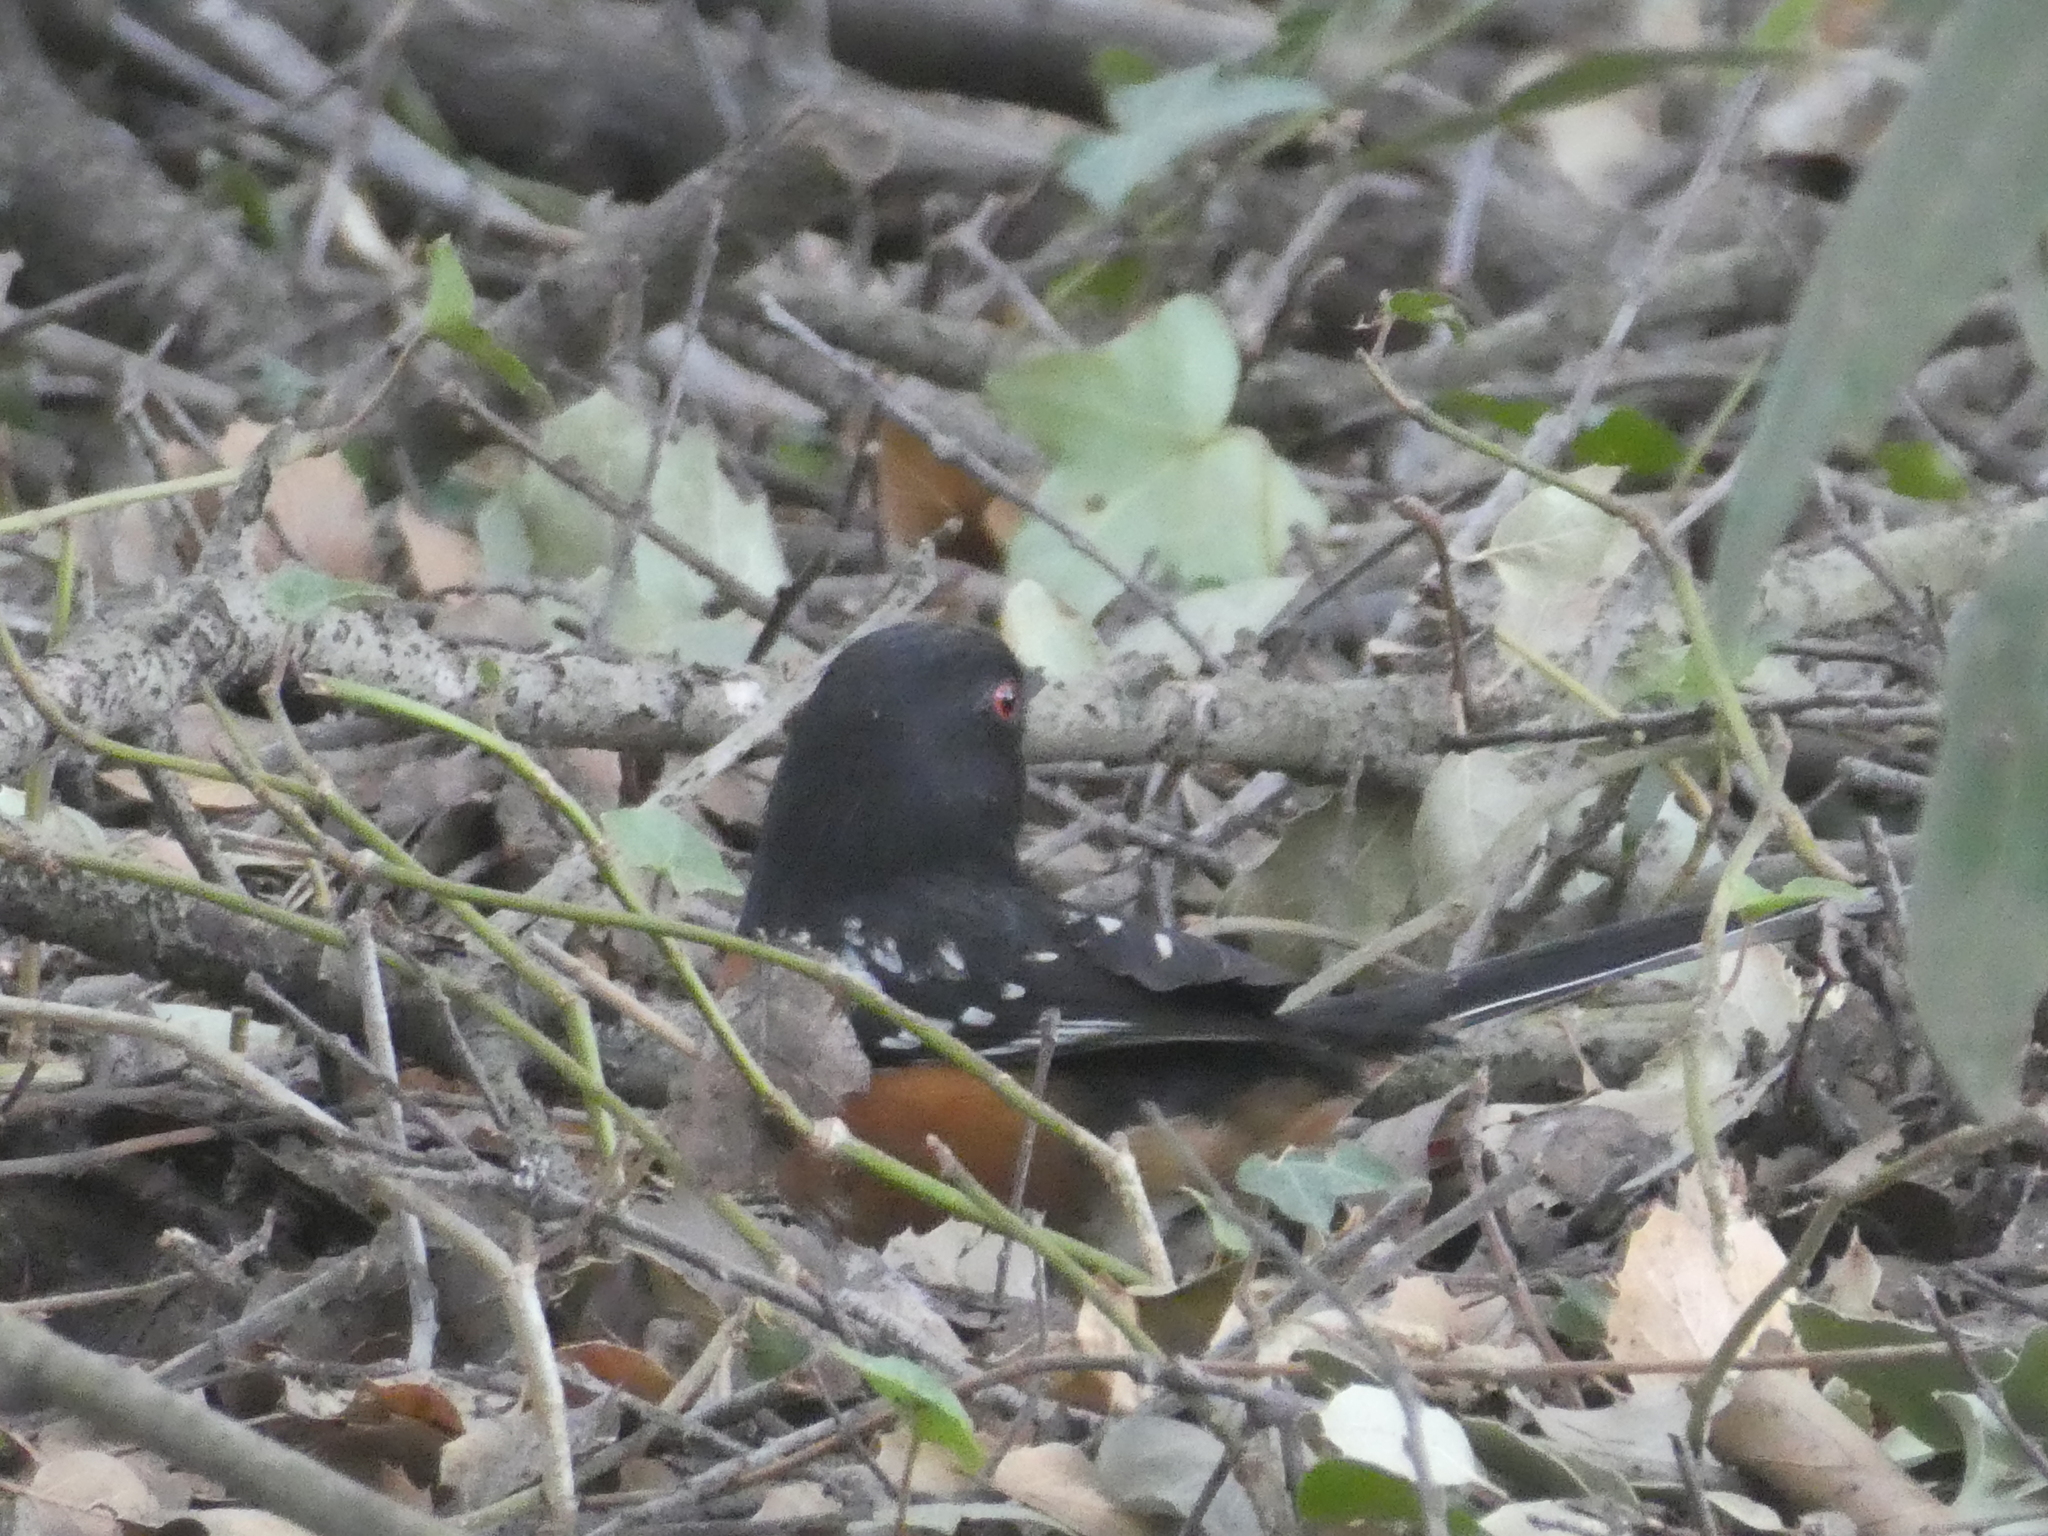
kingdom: Animalia
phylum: Chordata
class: Aves
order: Passeriformes
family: Passerellidae
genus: Pipilo
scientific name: Pipilo maculatus
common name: Spotted towhee
